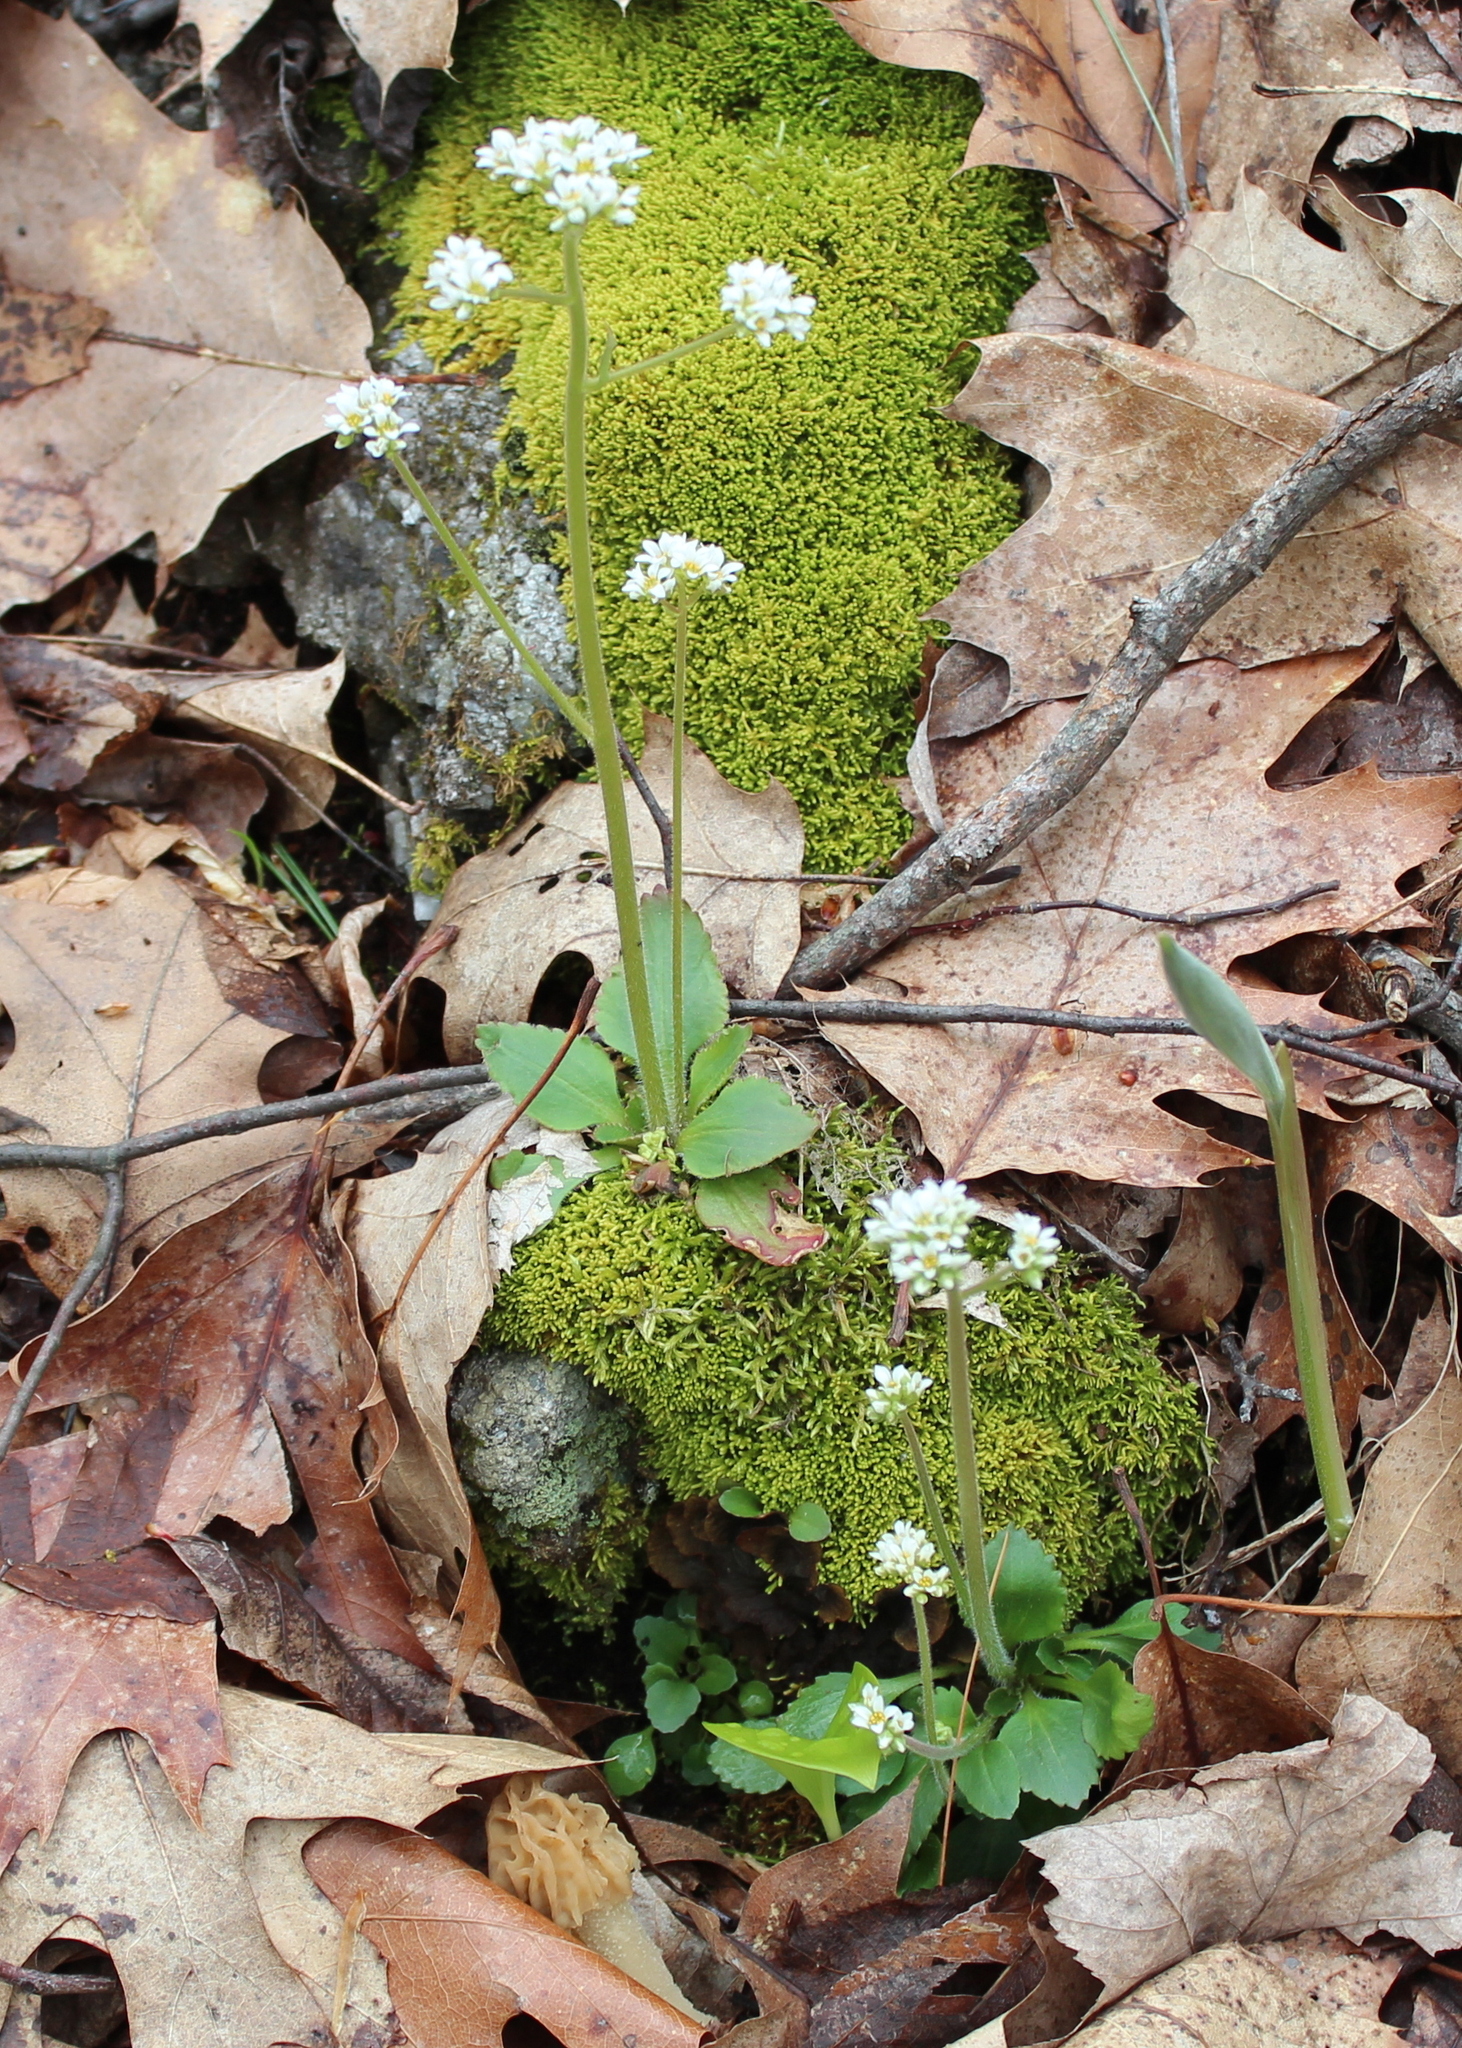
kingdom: Plantae
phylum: Tracheophyta
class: Magnoliopsida
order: Saxifragales
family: Saxifragaceae
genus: Micranthes
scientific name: Micranthes virginiensis
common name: Early saxifrage
